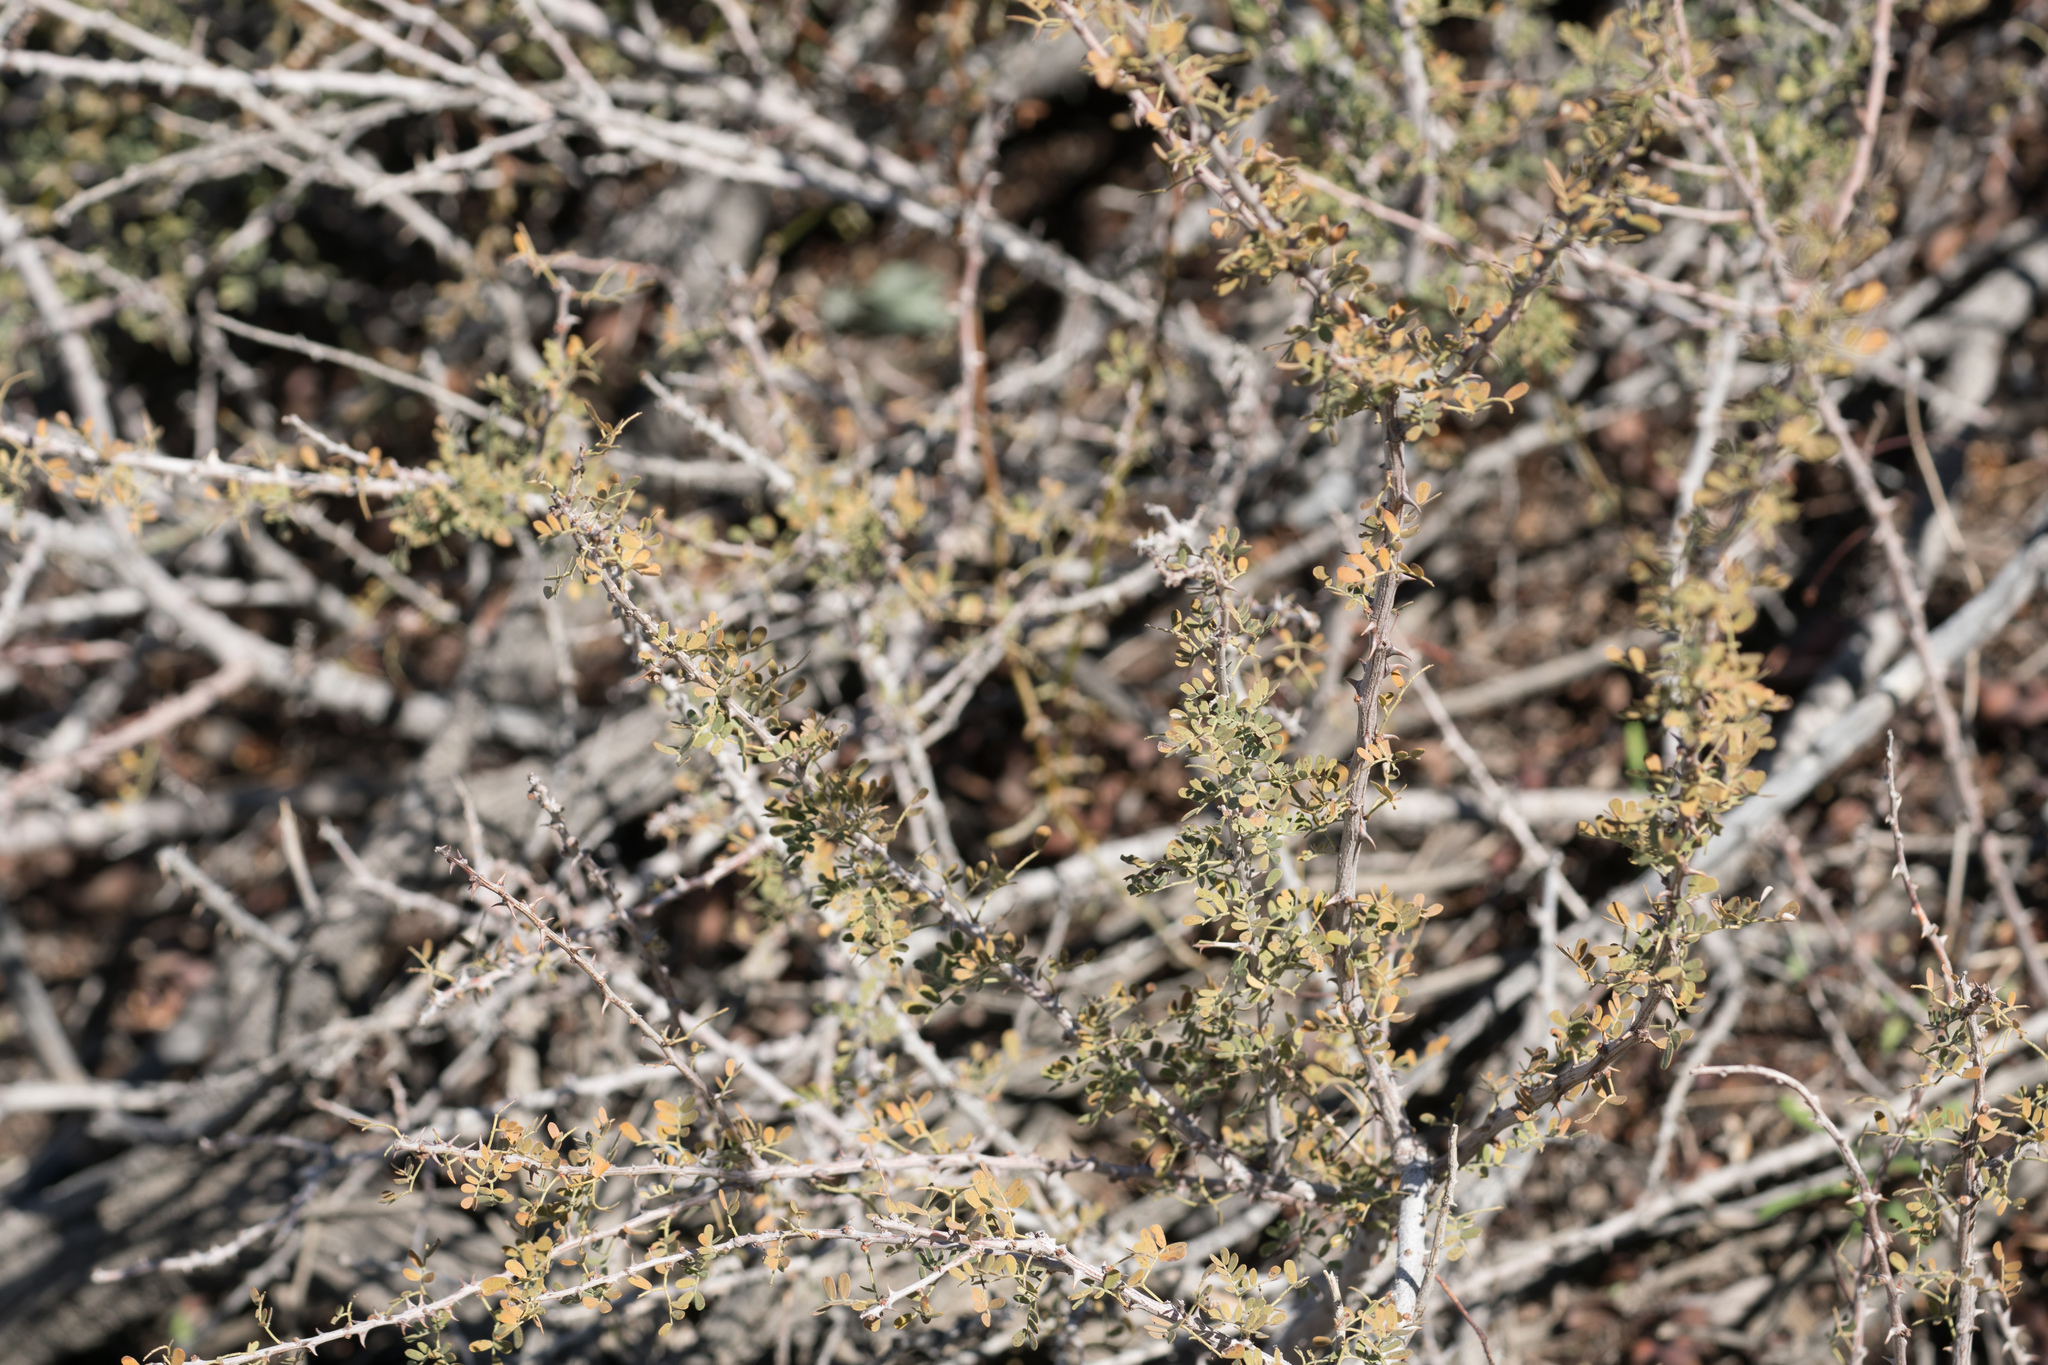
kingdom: Plantae
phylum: Tracheophyta
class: Magnoliopsida
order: Fabales
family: Fabaceae
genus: Senegalia
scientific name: Senegalia greggii
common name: Texas-mimosa
